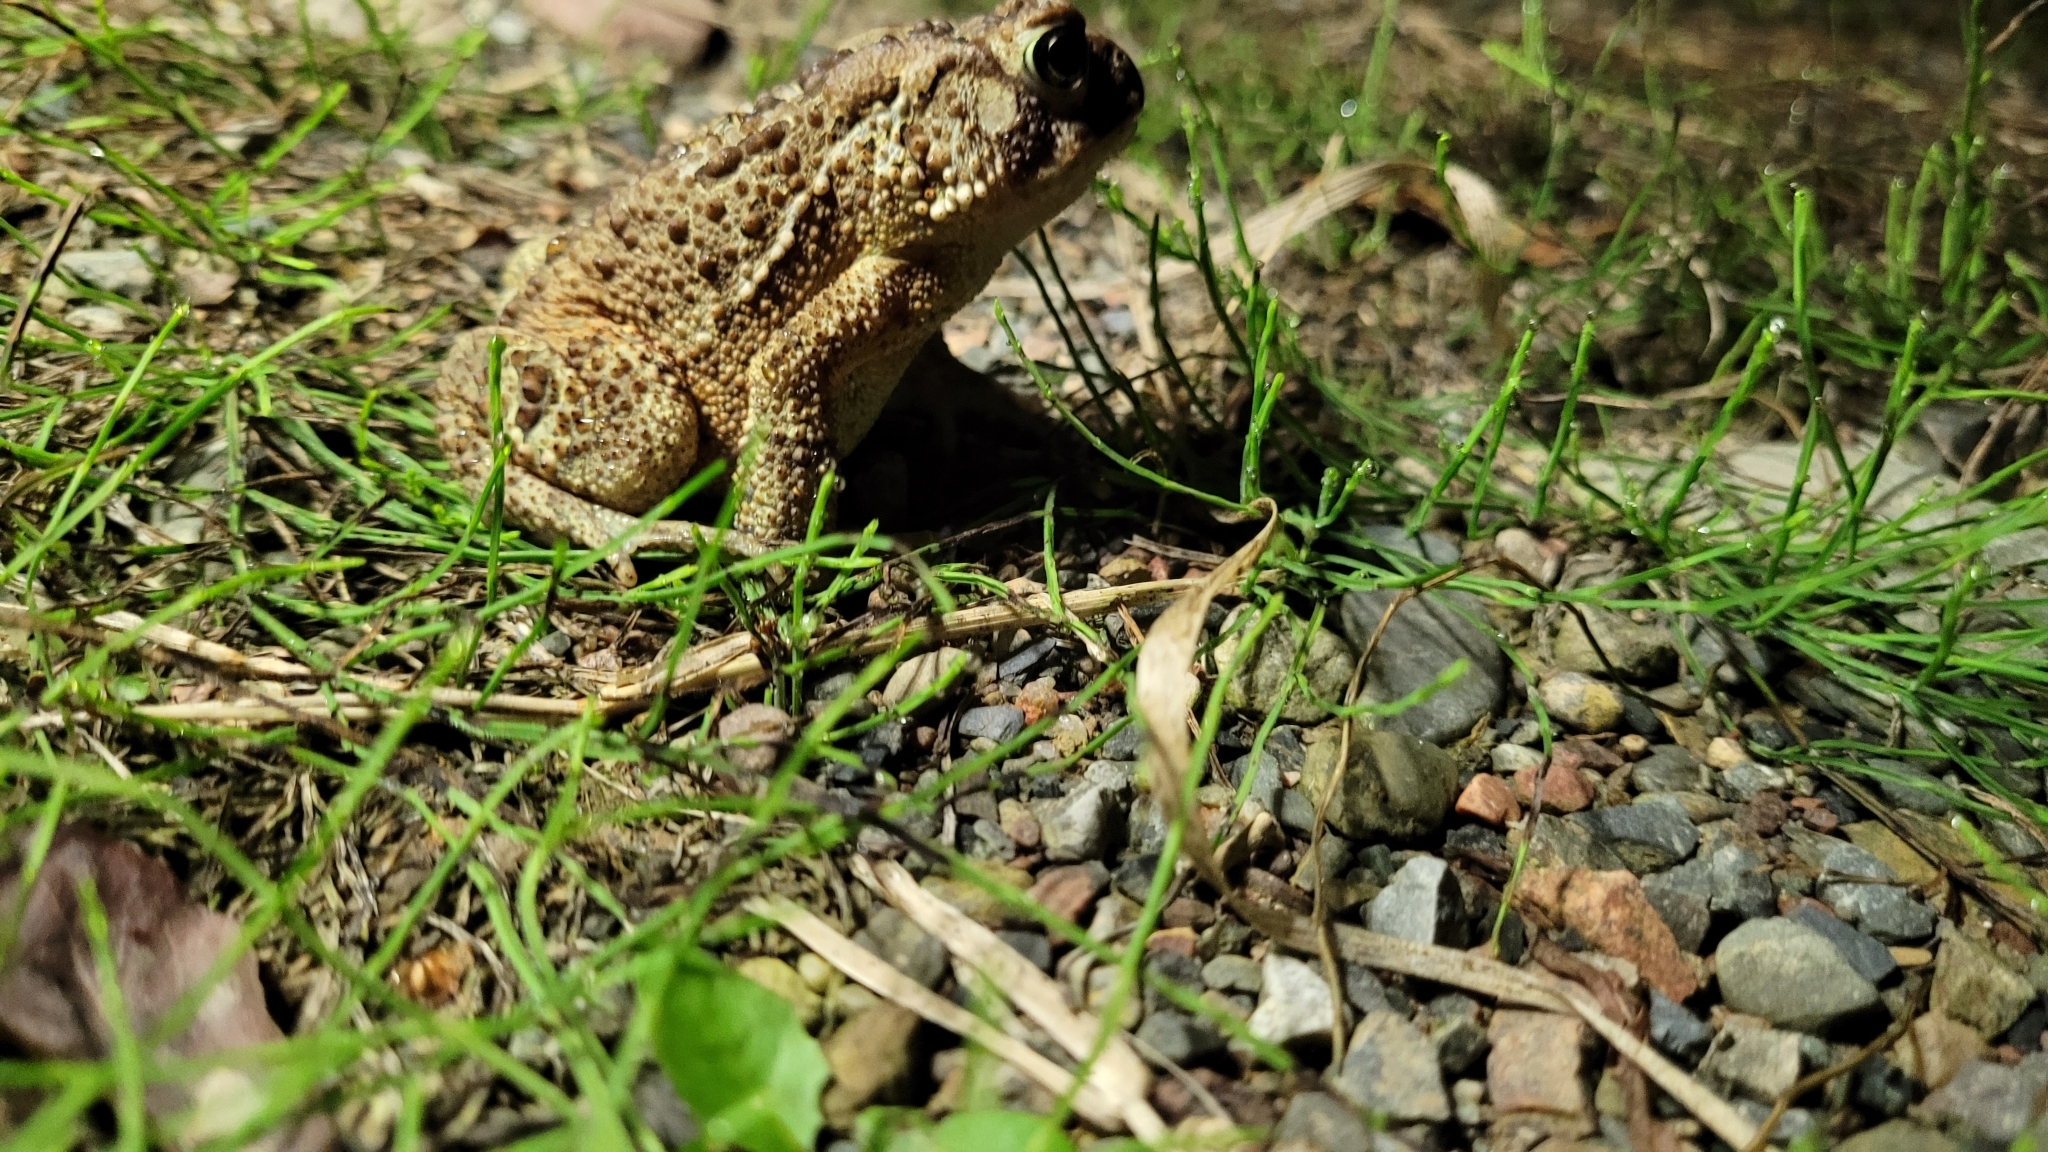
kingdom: Animalia
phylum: Chordata
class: Amphibia
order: Anura
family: Bufonidae
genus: Anaxyrus
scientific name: Anaxyrus americanus
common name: American toad
